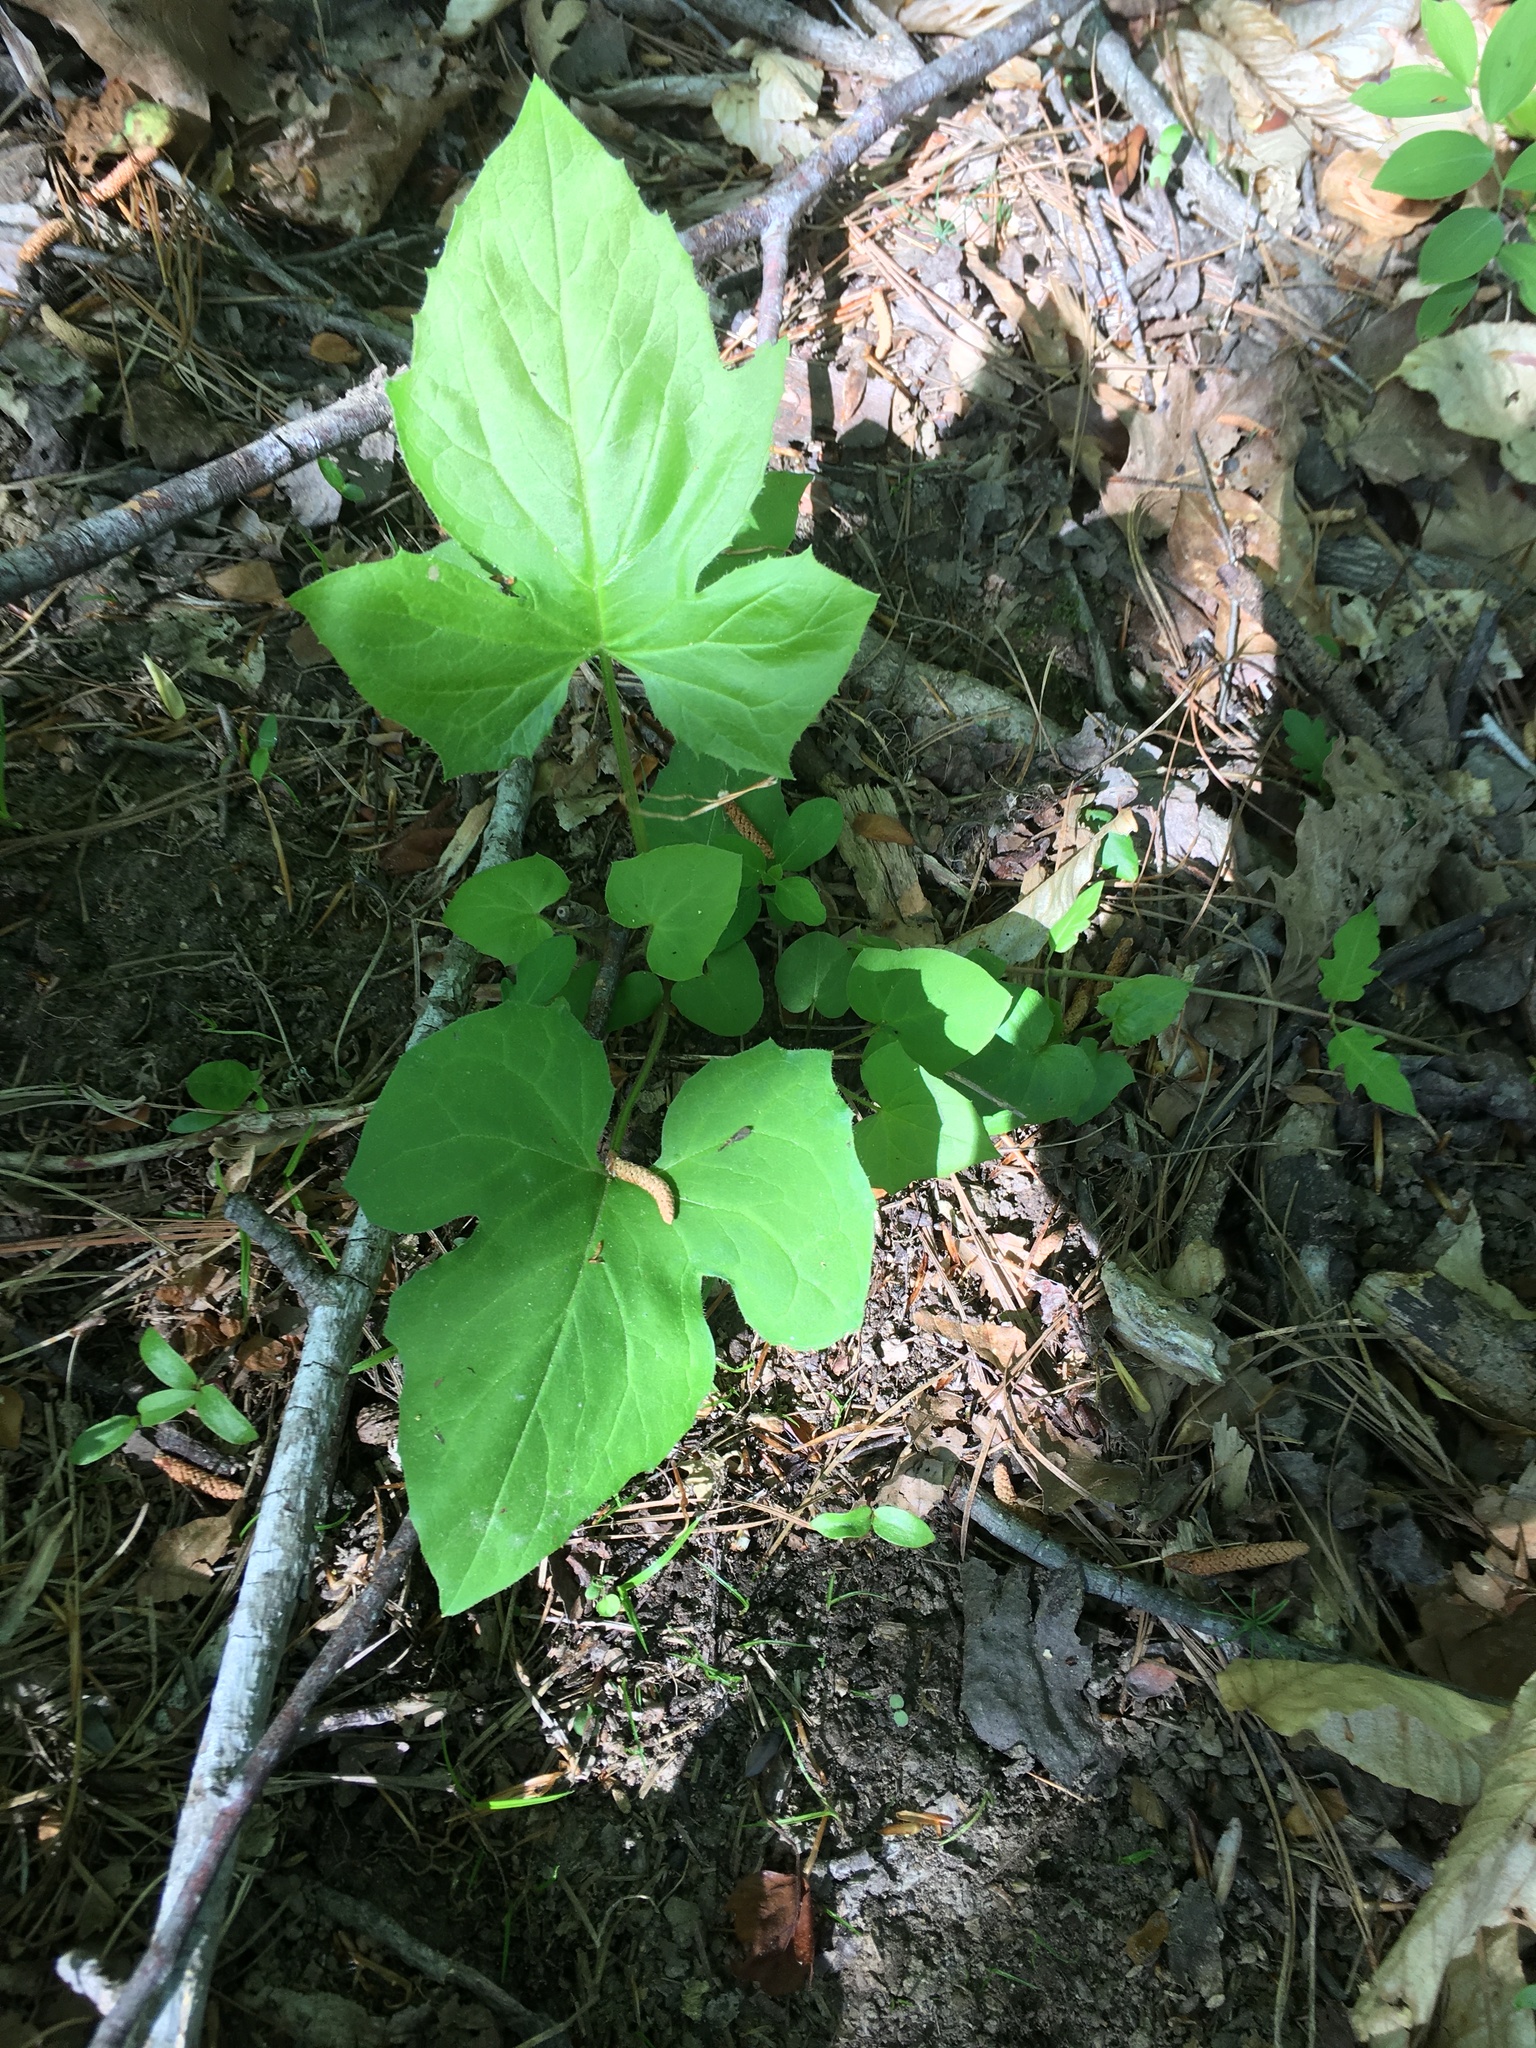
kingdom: Plantae
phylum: Tracheophyta
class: Magnoliopsida
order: Asterales
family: Asteraceae
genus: Nabalus
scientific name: Nabalus altissima
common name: Tall rattlesnakeroot
